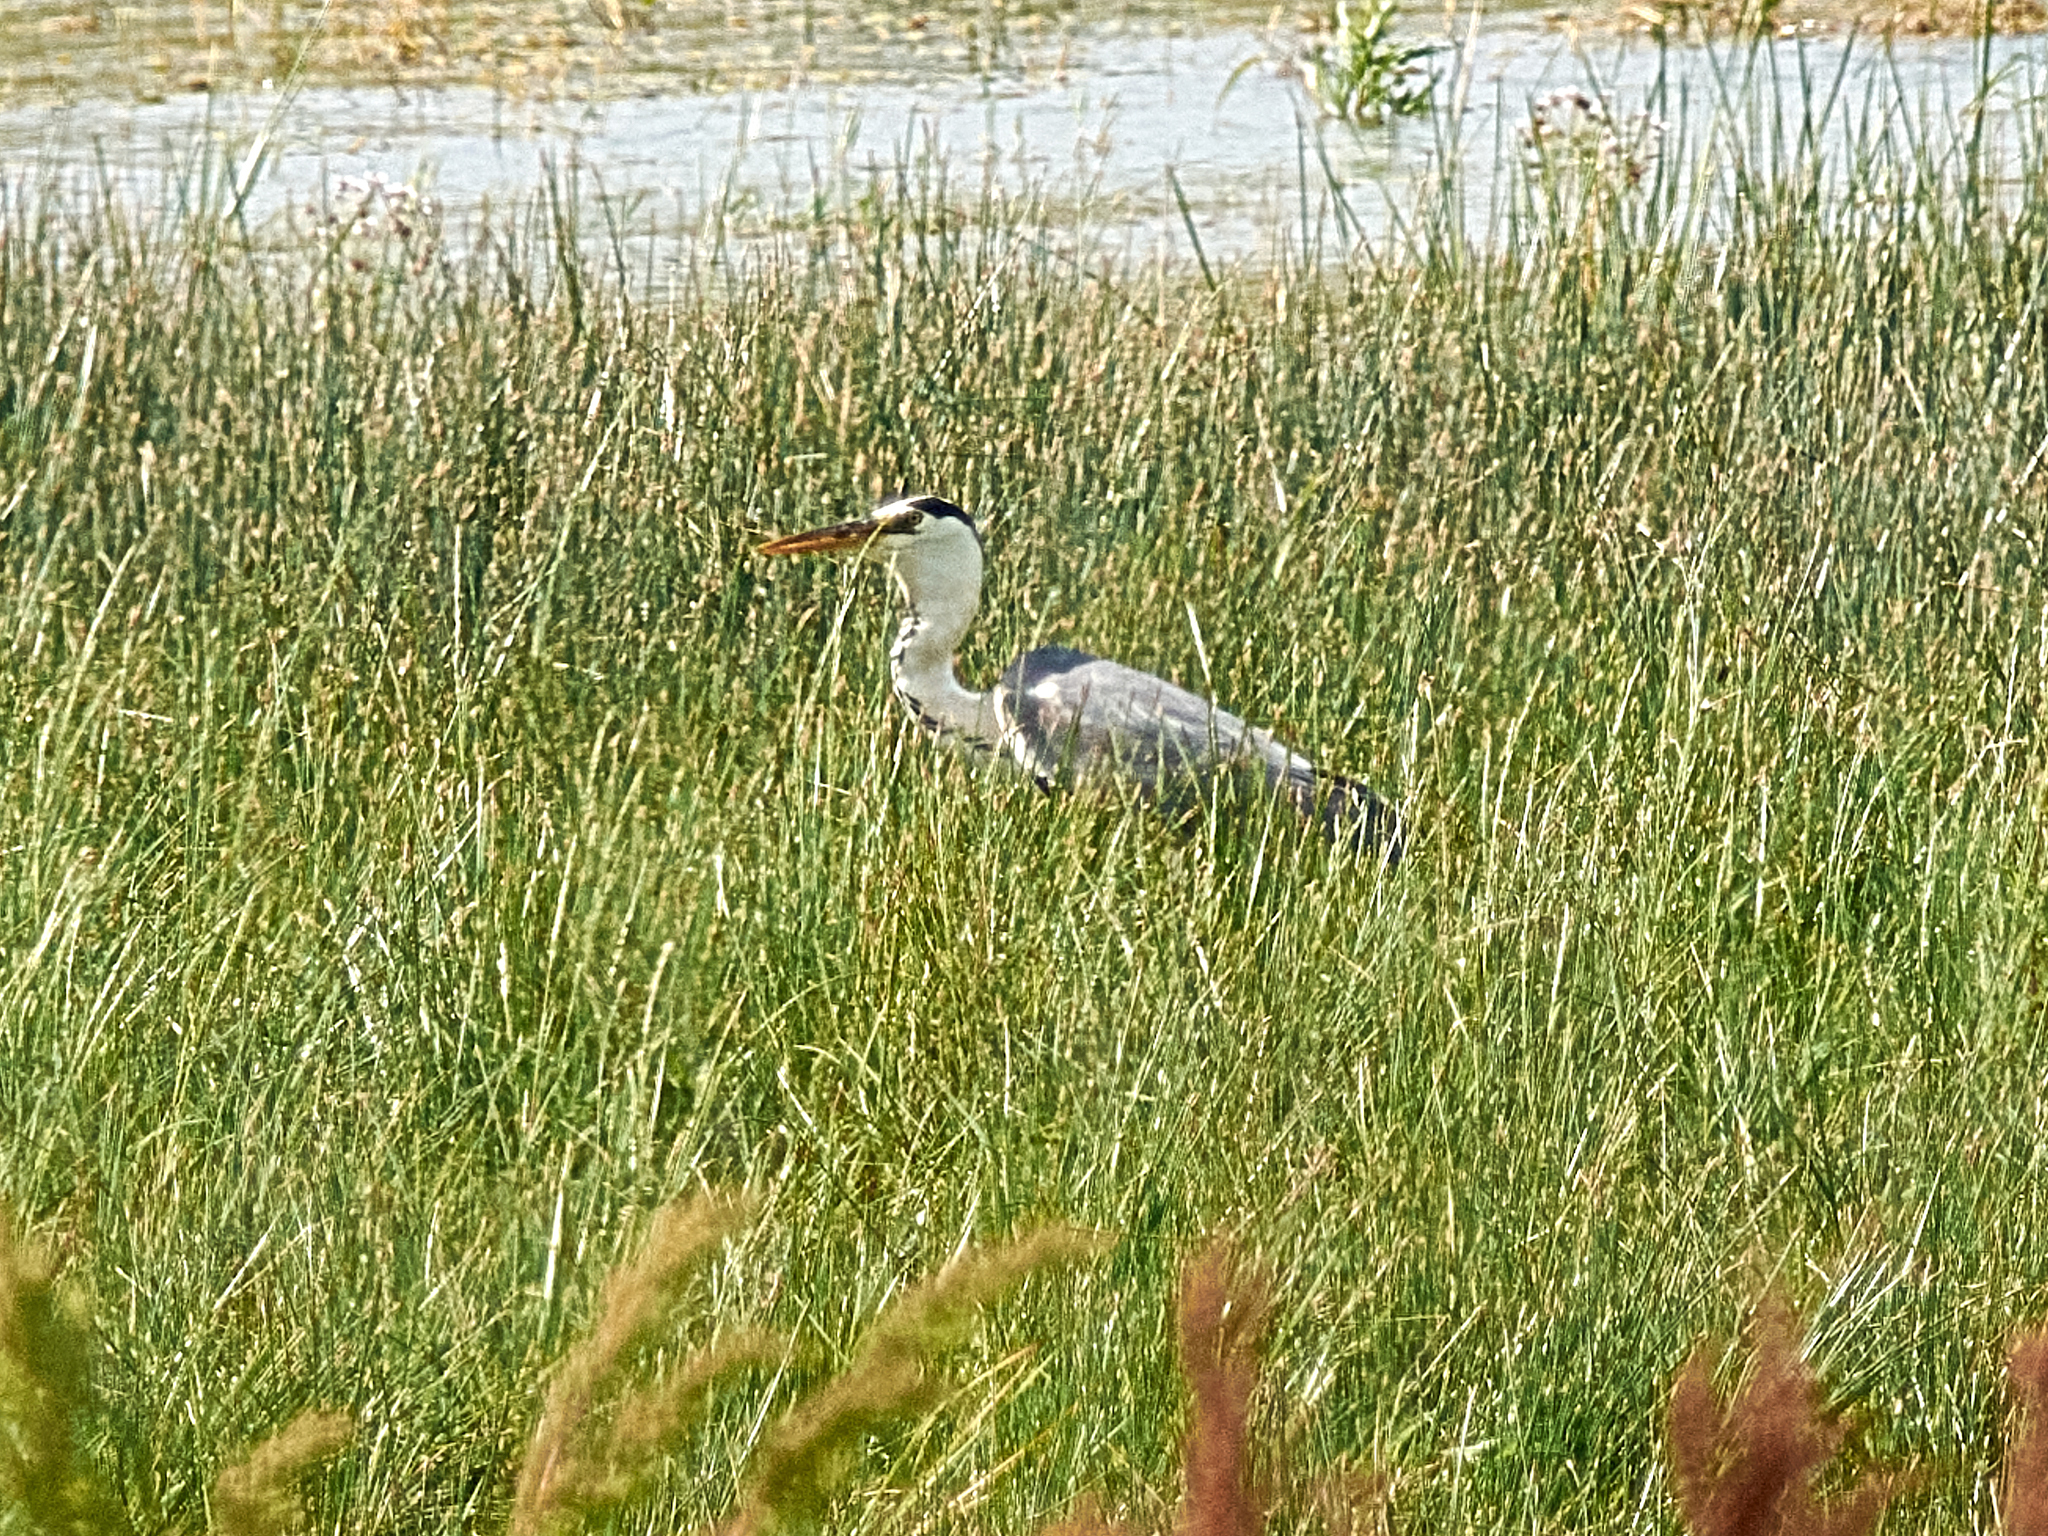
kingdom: Animalia
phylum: Chordata
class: Aves
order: Pelecaniformes
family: Ardeidae
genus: Ardea
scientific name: Ardea cinerea
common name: Grey heron
